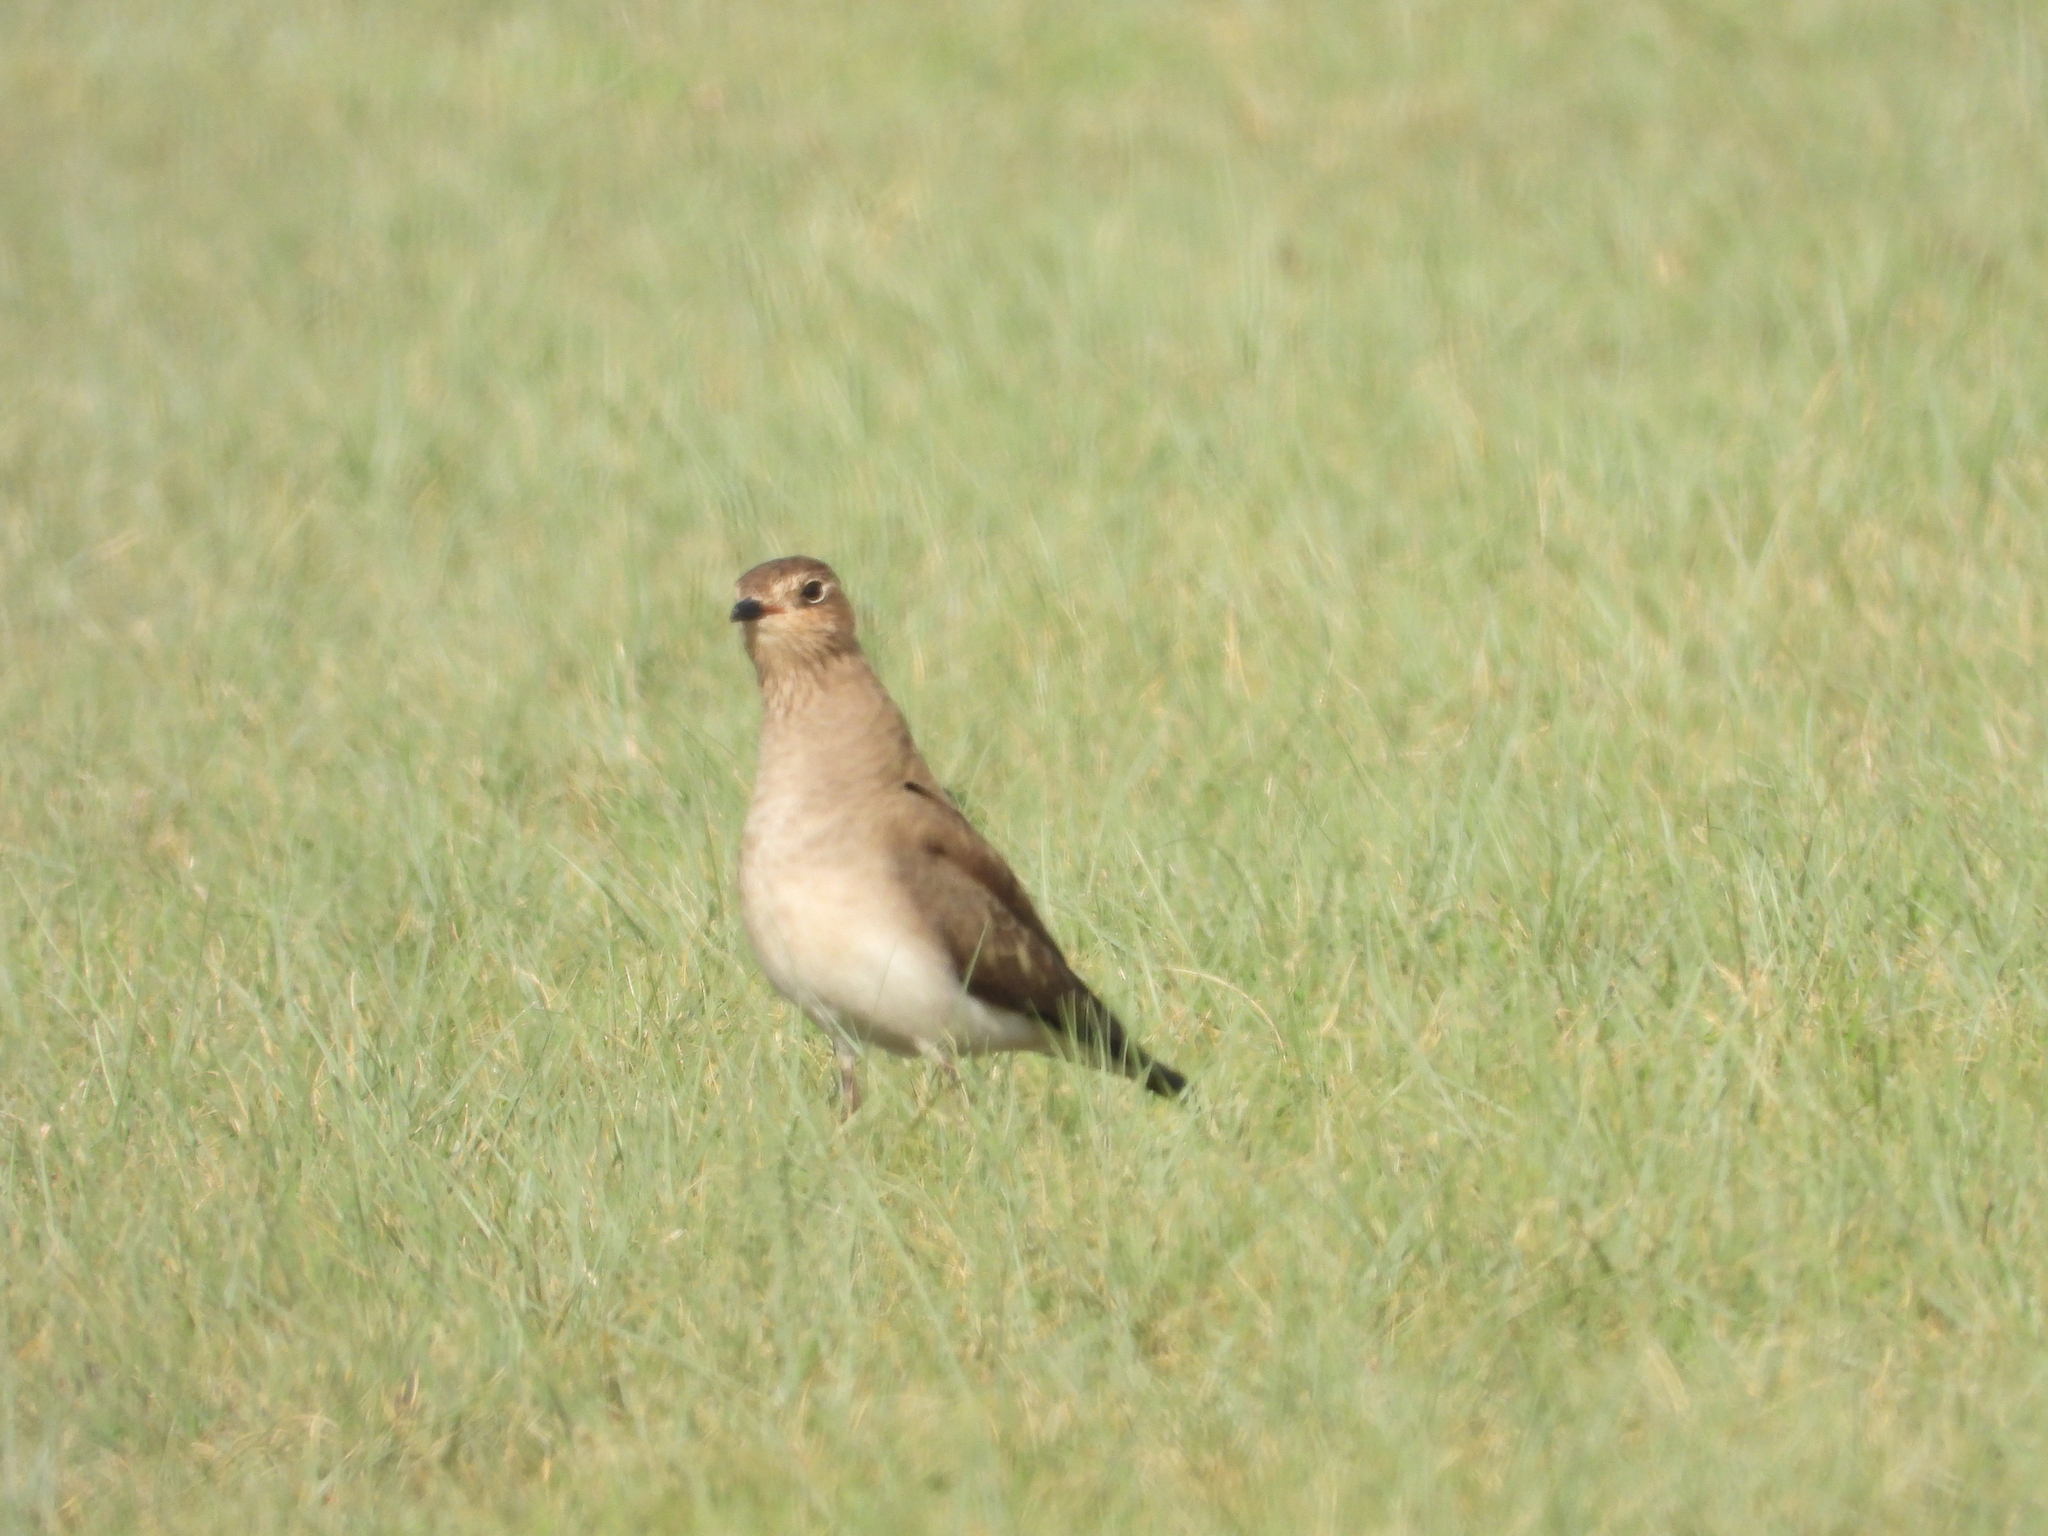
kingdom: Animalia
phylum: Chordata
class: Aves
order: Charadriiformes
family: Glareolidae
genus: Glareola
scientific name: Glareola pratincola
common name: Collared pratincole
